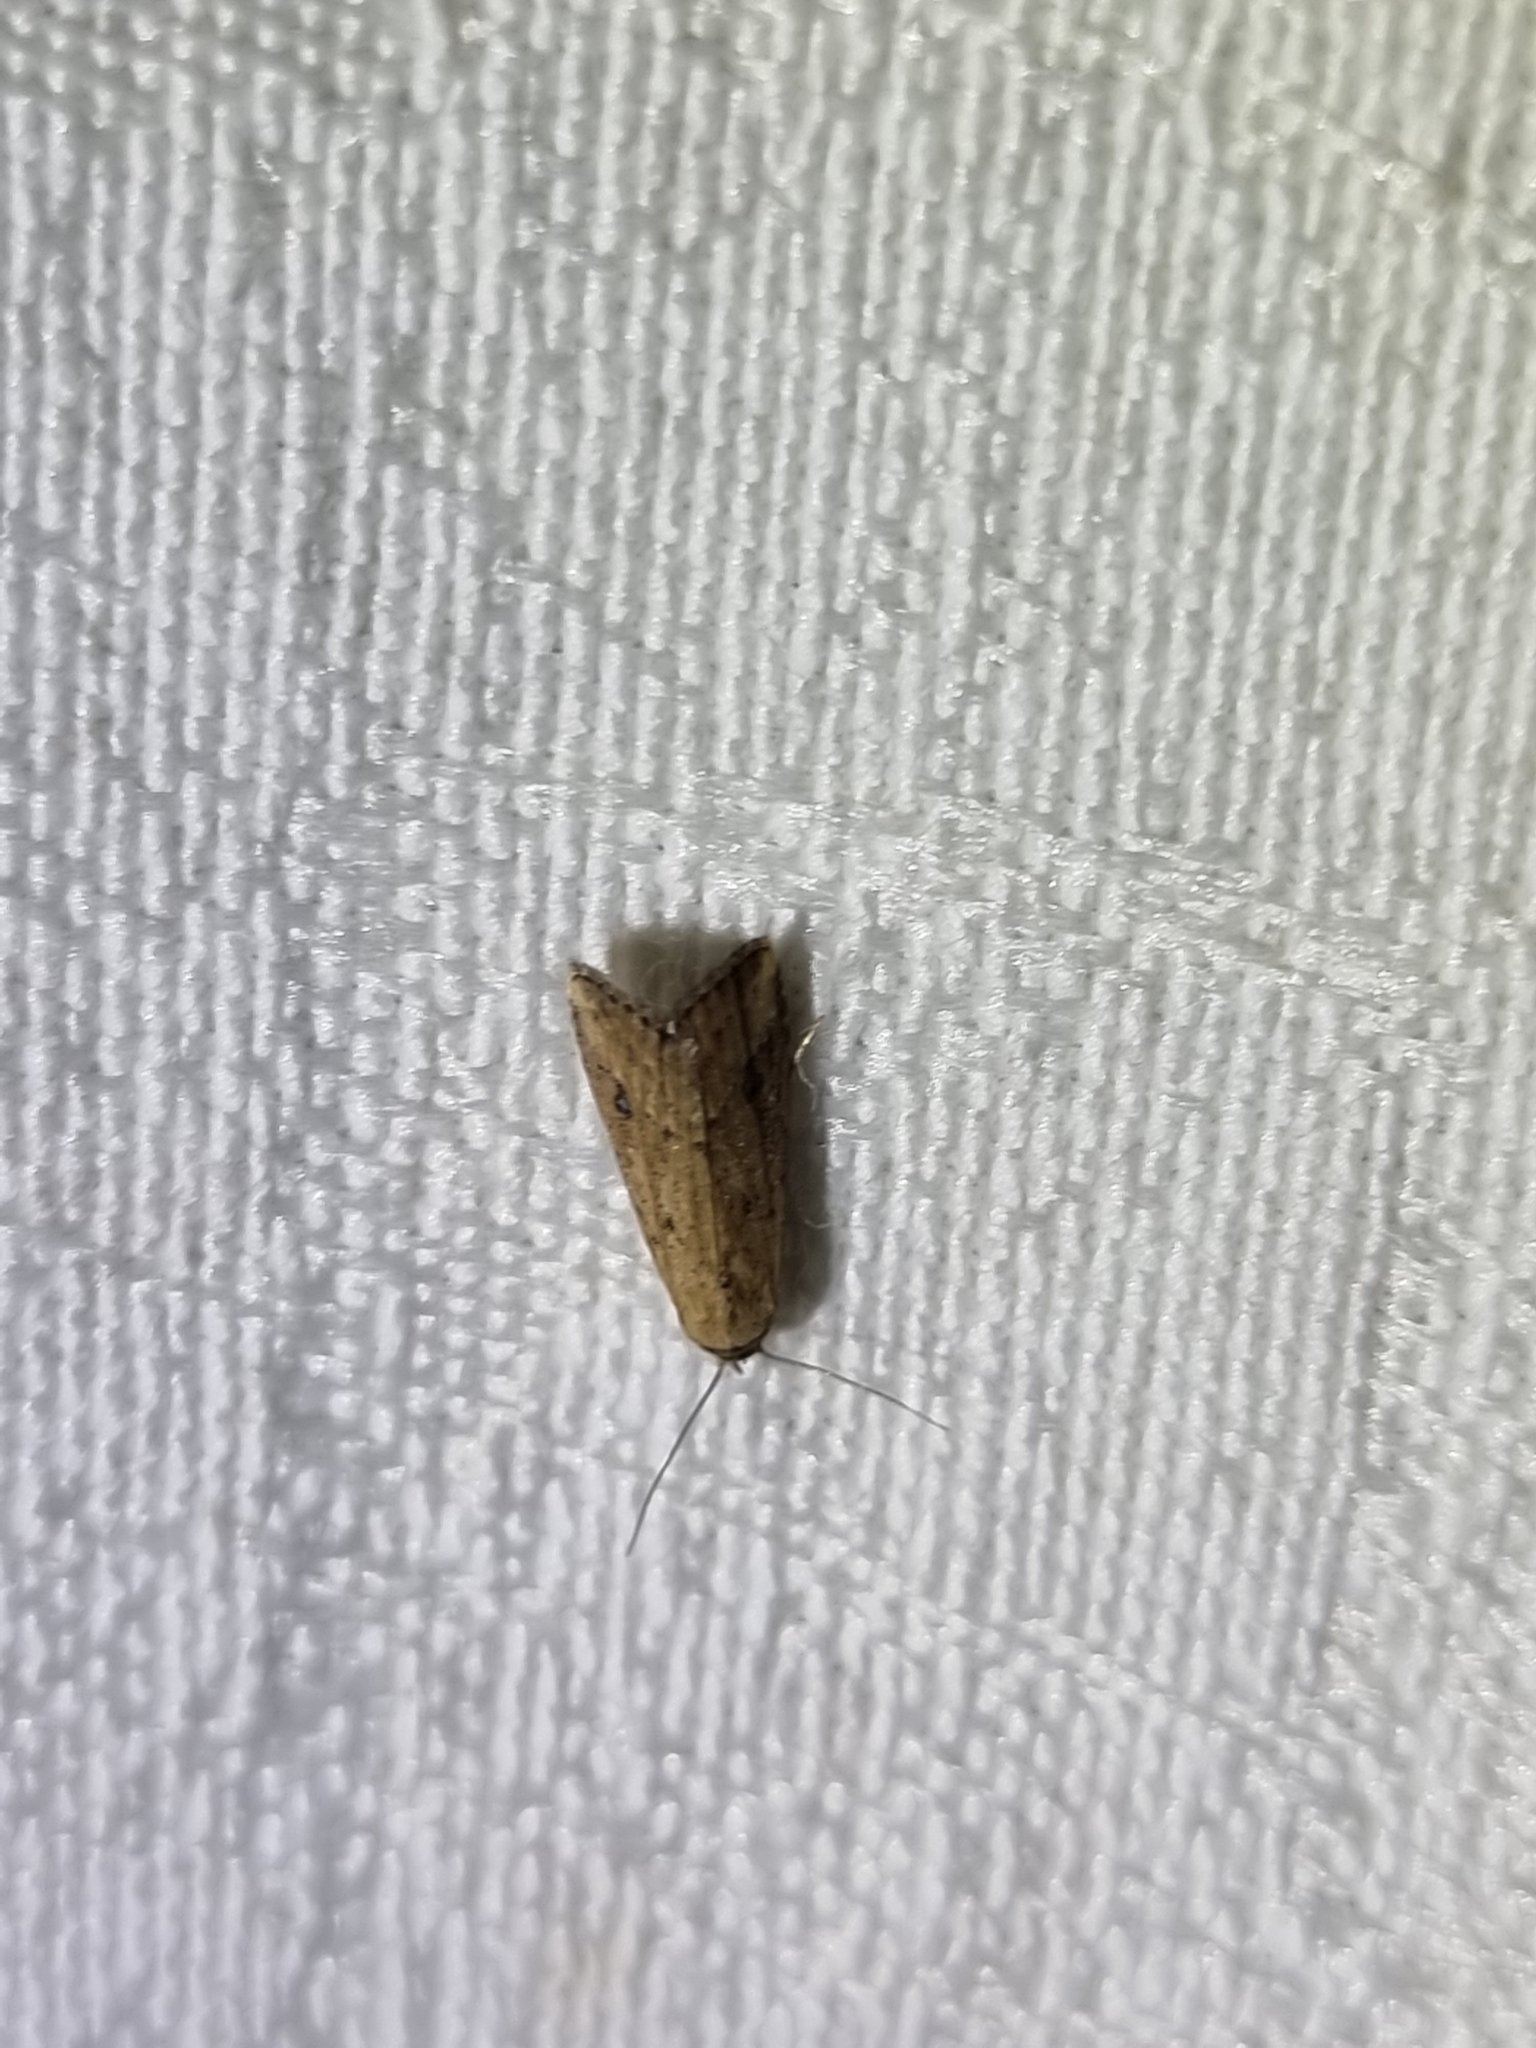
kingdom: Animalia
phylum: Arthropoda
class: Insecta
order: Lepidoptera
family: Erebidae
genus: Luceria
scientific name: Luceria oculalis
